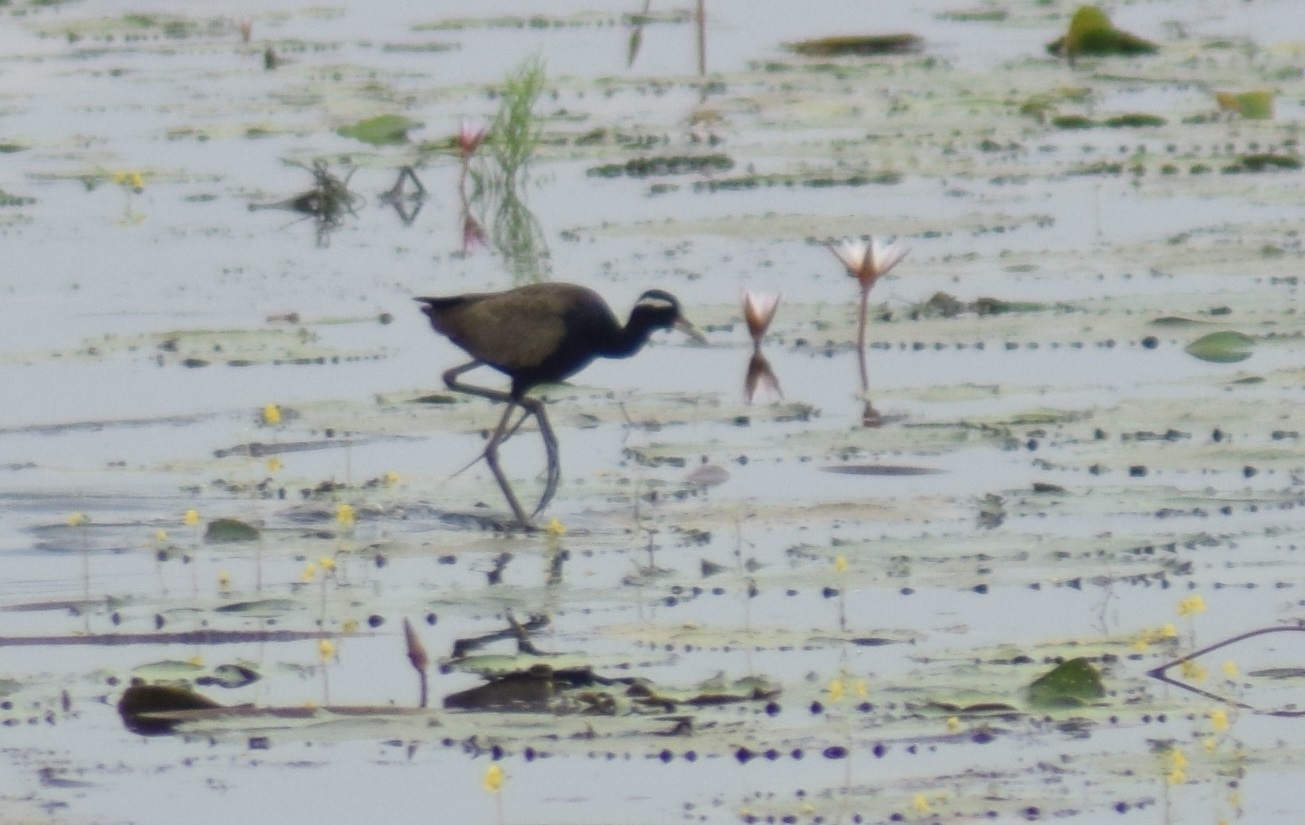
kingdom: Animalia
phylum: Chordata
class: Aves
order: Charadriiformes
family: Jacanidae
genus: Metopidius
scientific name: Metopidius indicus
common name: Bronze-winged jacana
